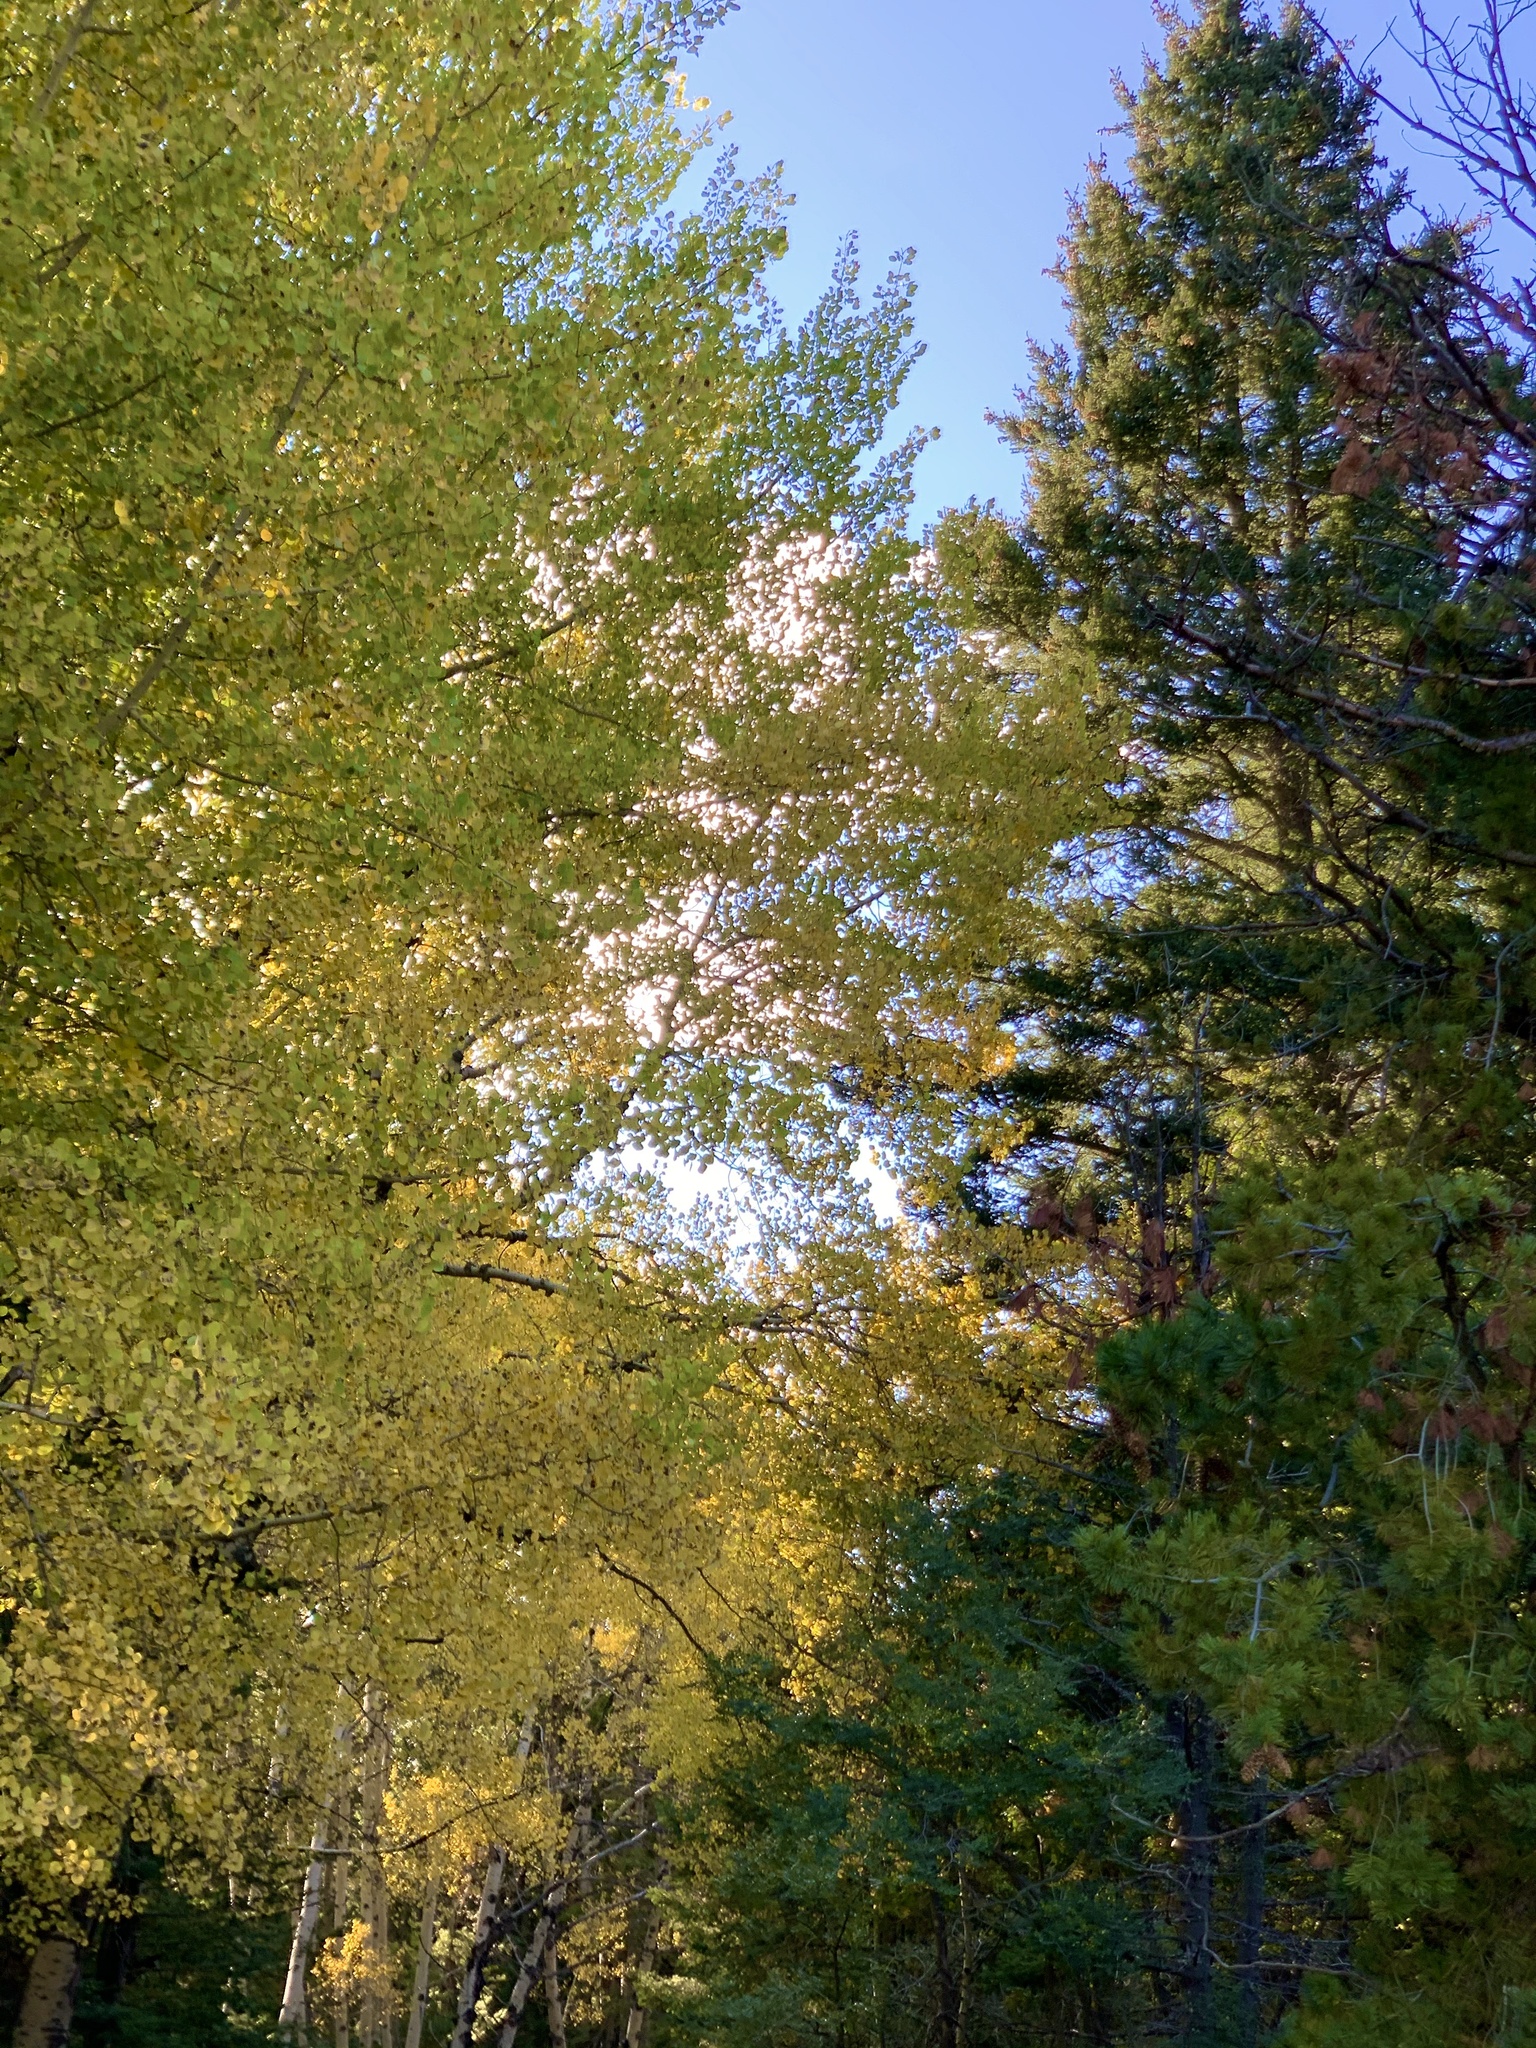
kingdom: Plantae
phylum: Tracheophyta
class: Magnoliopsida
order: Malpighiales
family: Salicaceae
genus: Populus
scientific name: Populus tremuloides
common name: Quaking aspen
